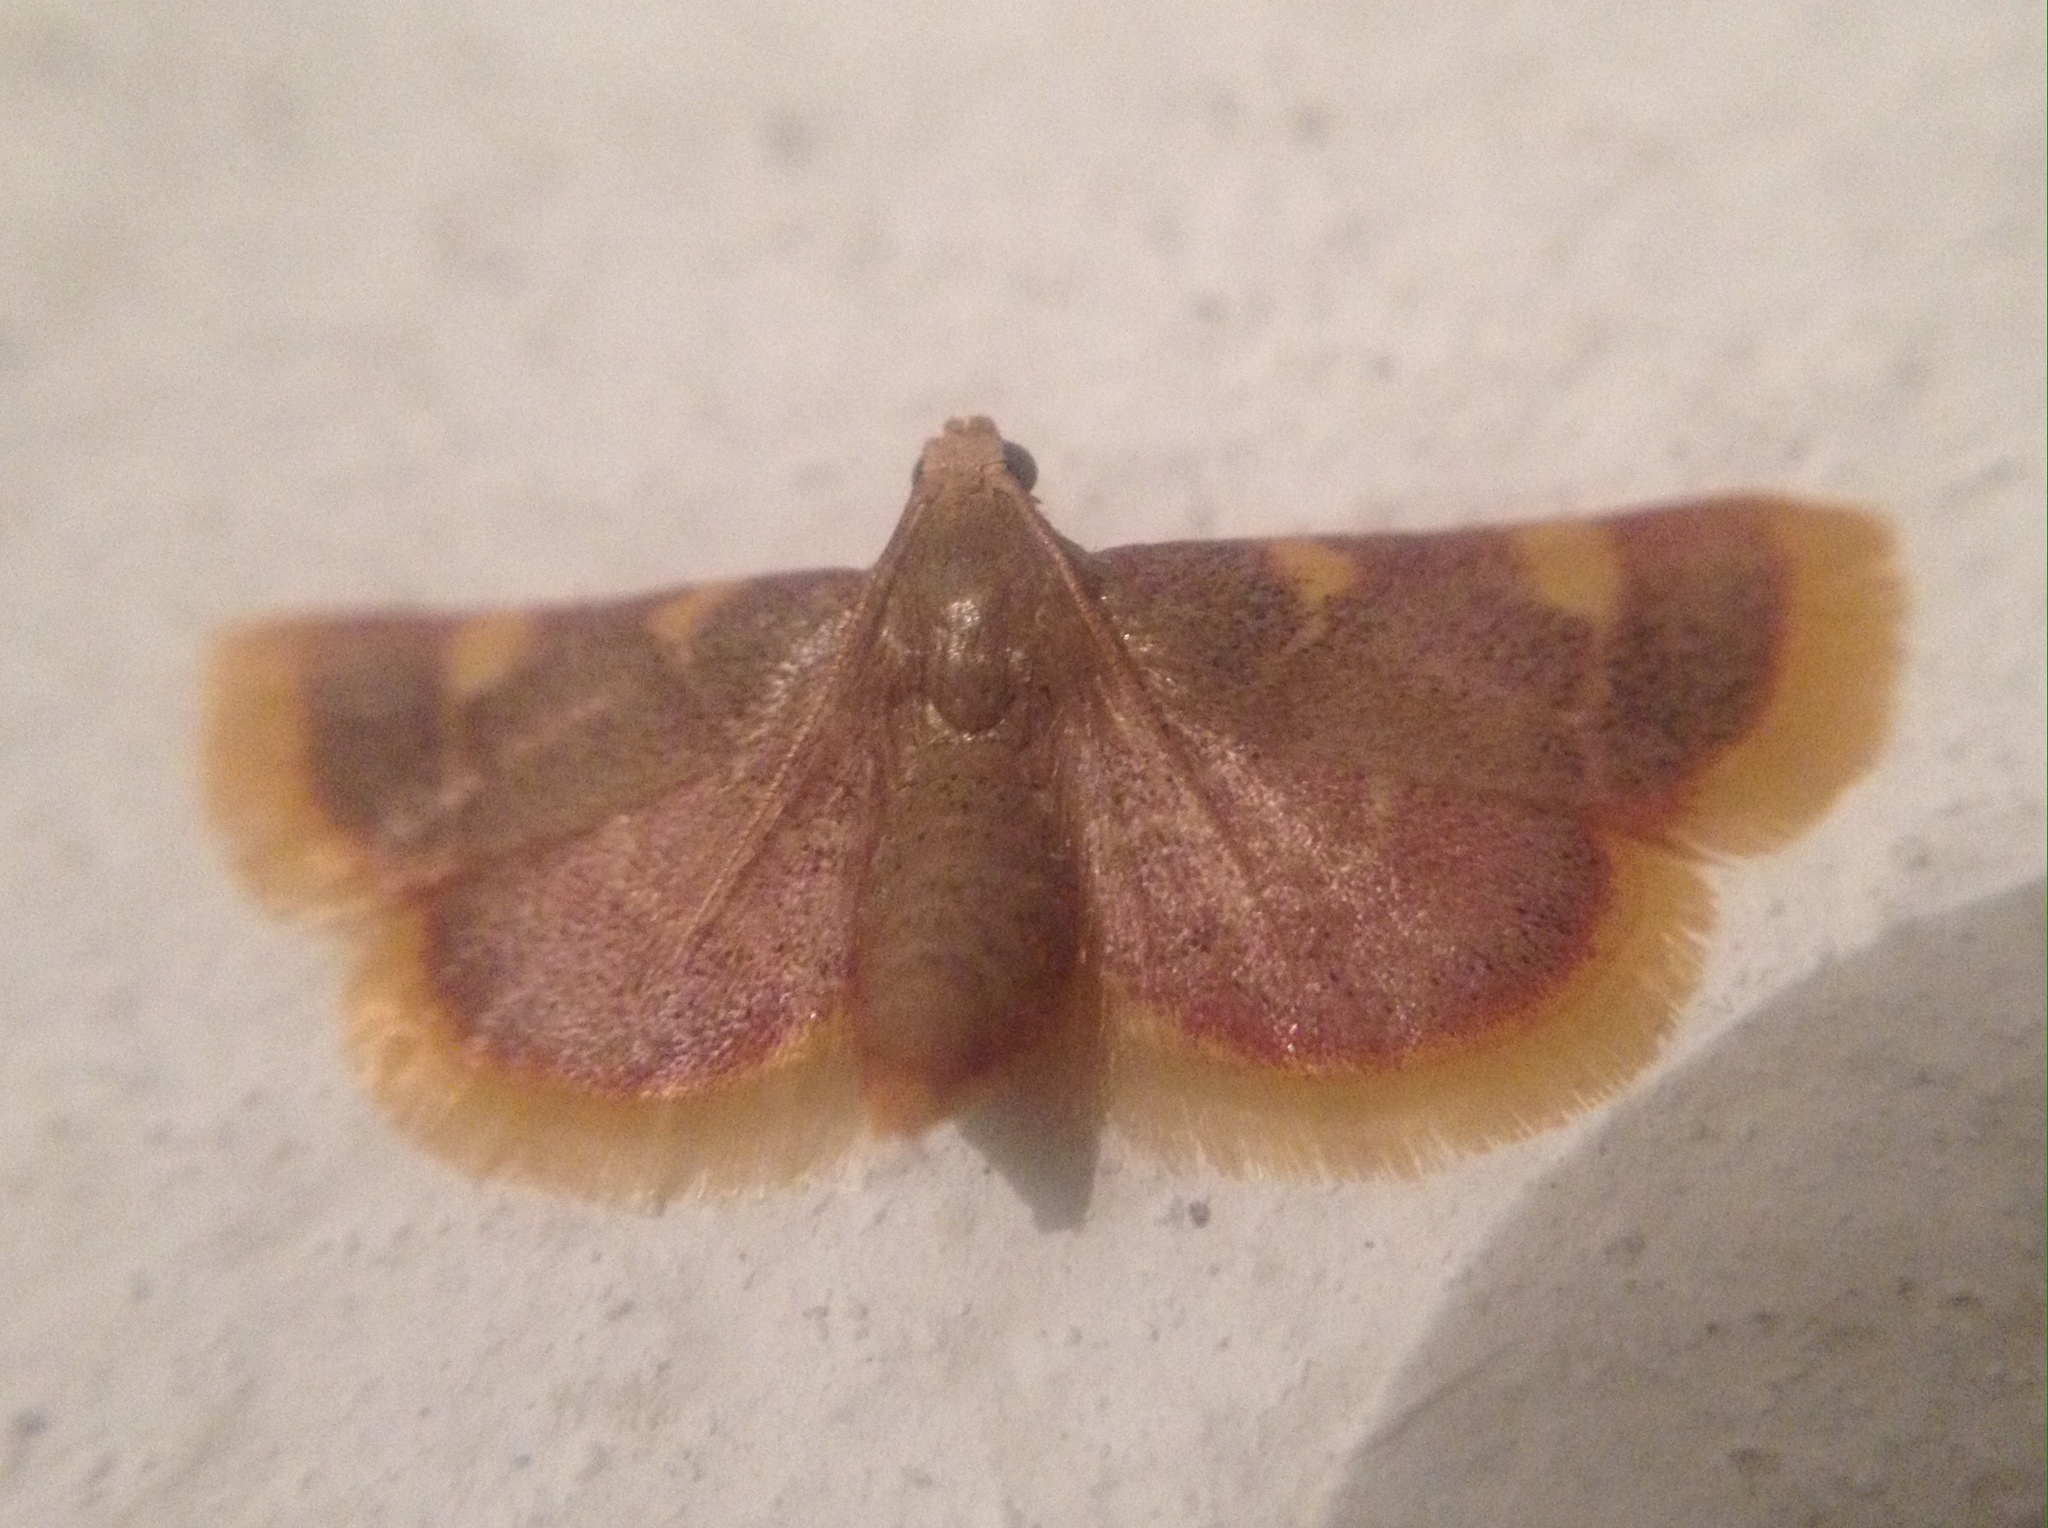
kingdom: Animalia
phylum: Arthropoda
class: Insecta
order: Lepidoptera
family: Pyralidae
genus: Hypsopygia
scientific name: Hypsopygia costalis
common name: Gold triangle
